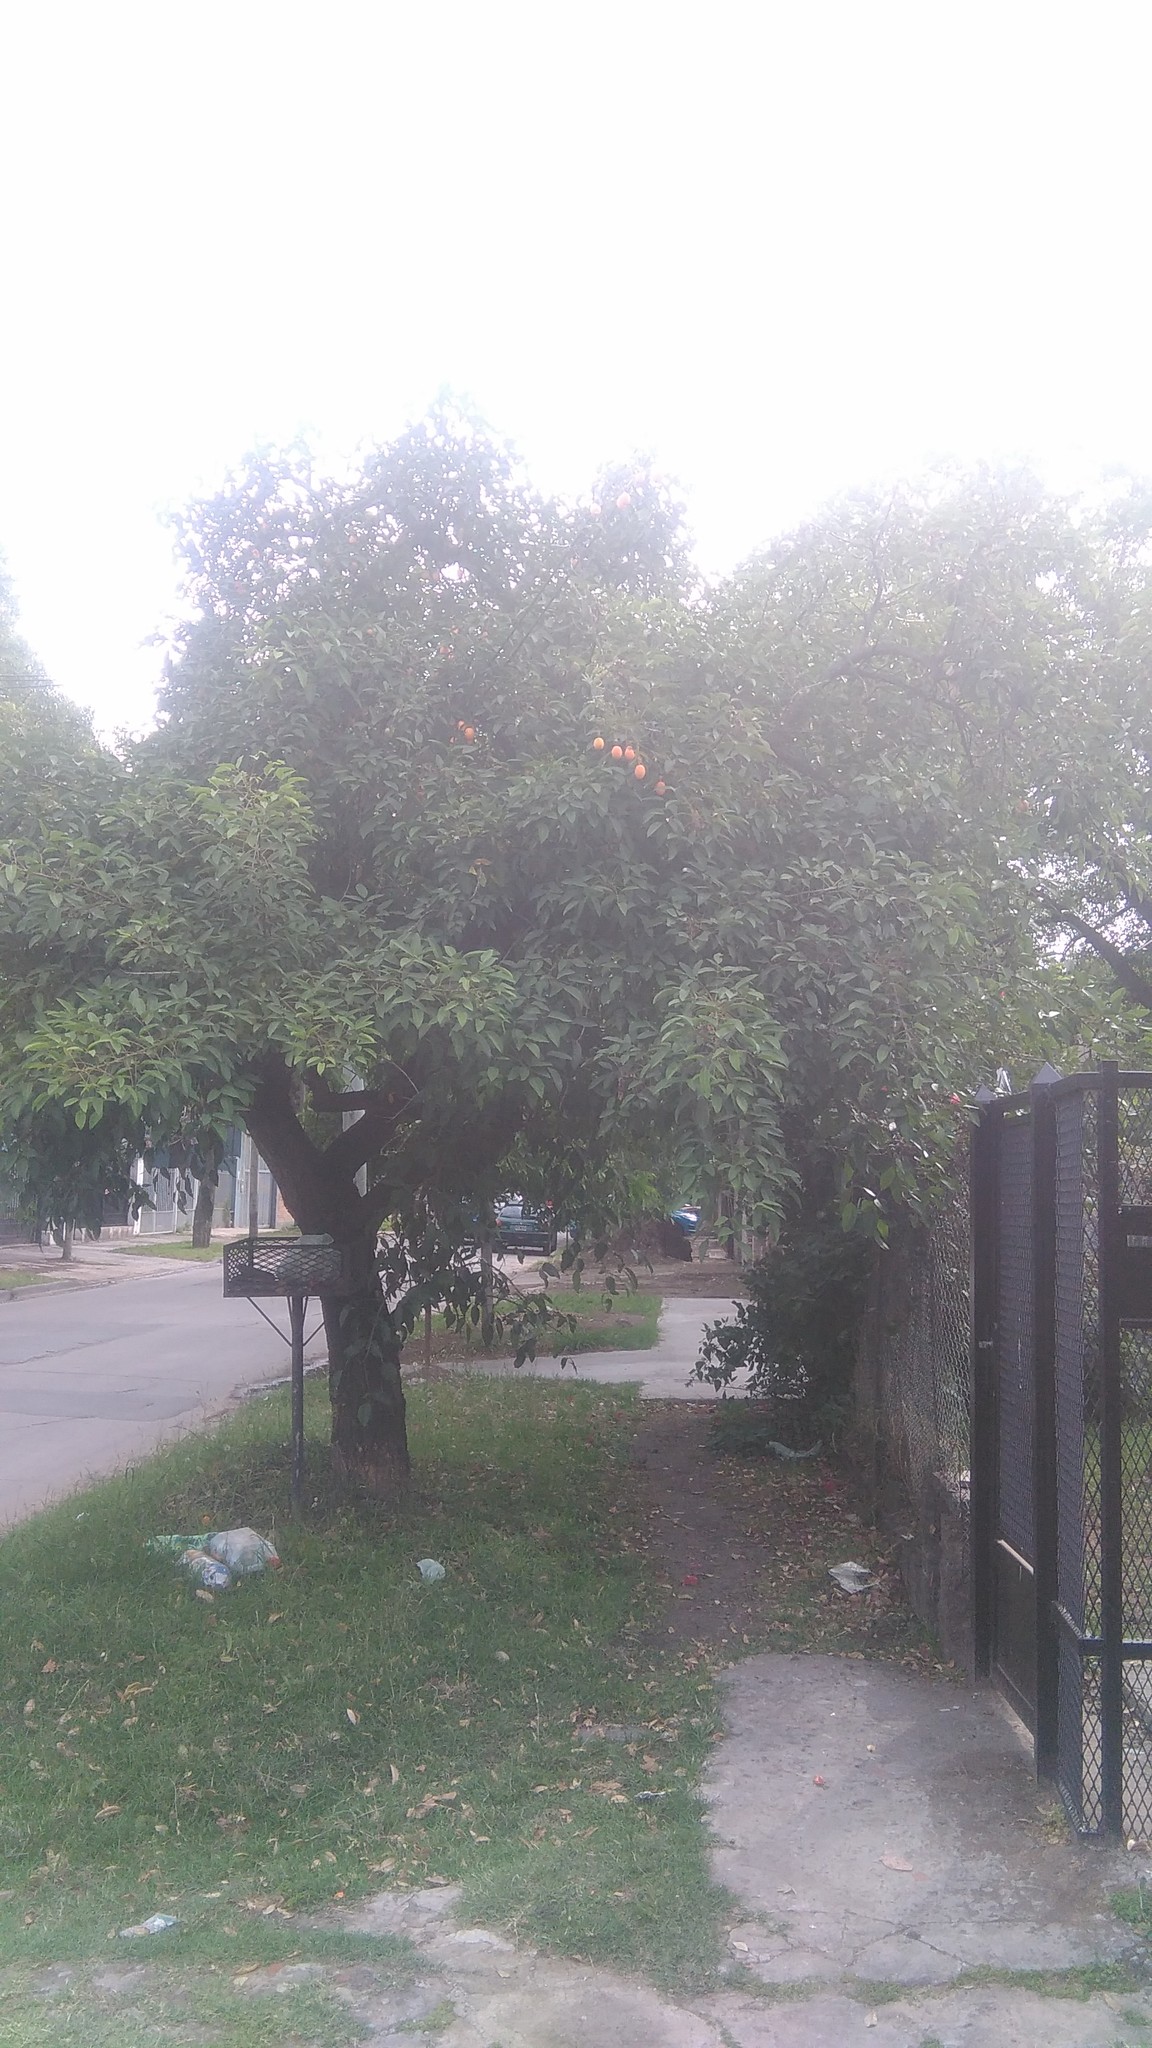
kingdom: Plantae
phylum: Tracheophyta
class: Magnoliopsida
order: Malpighiales
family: Passifloraceae
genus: Passiflora
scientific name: Passiflora caerulea
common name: Blue passionflower
